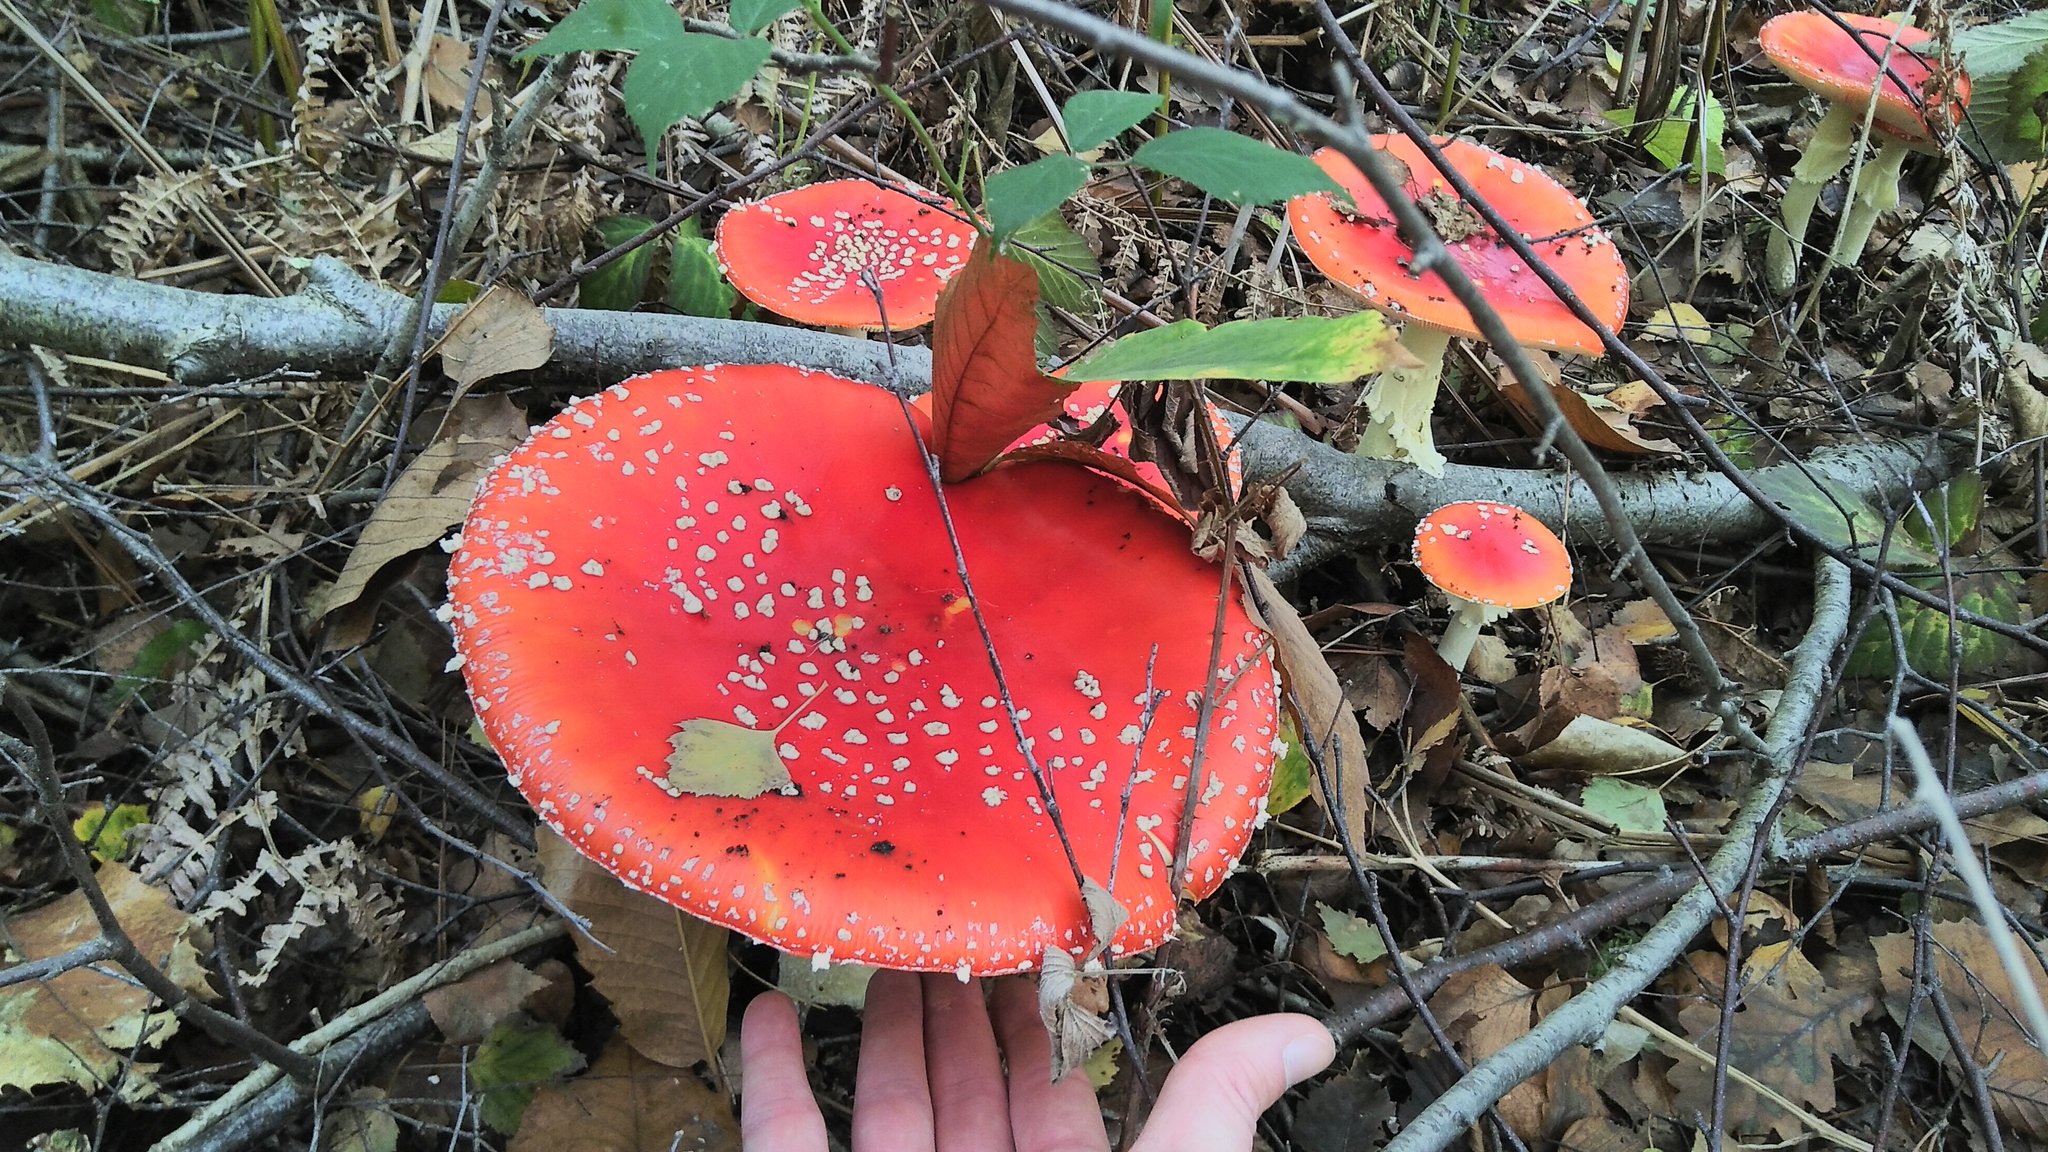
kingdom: Fungi
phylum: Basidiomycota
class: Agaricomycetes
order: Agaricales
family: Amanitaceae
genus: Amanita
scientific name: Amanita muscaria
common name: Fly agaric
